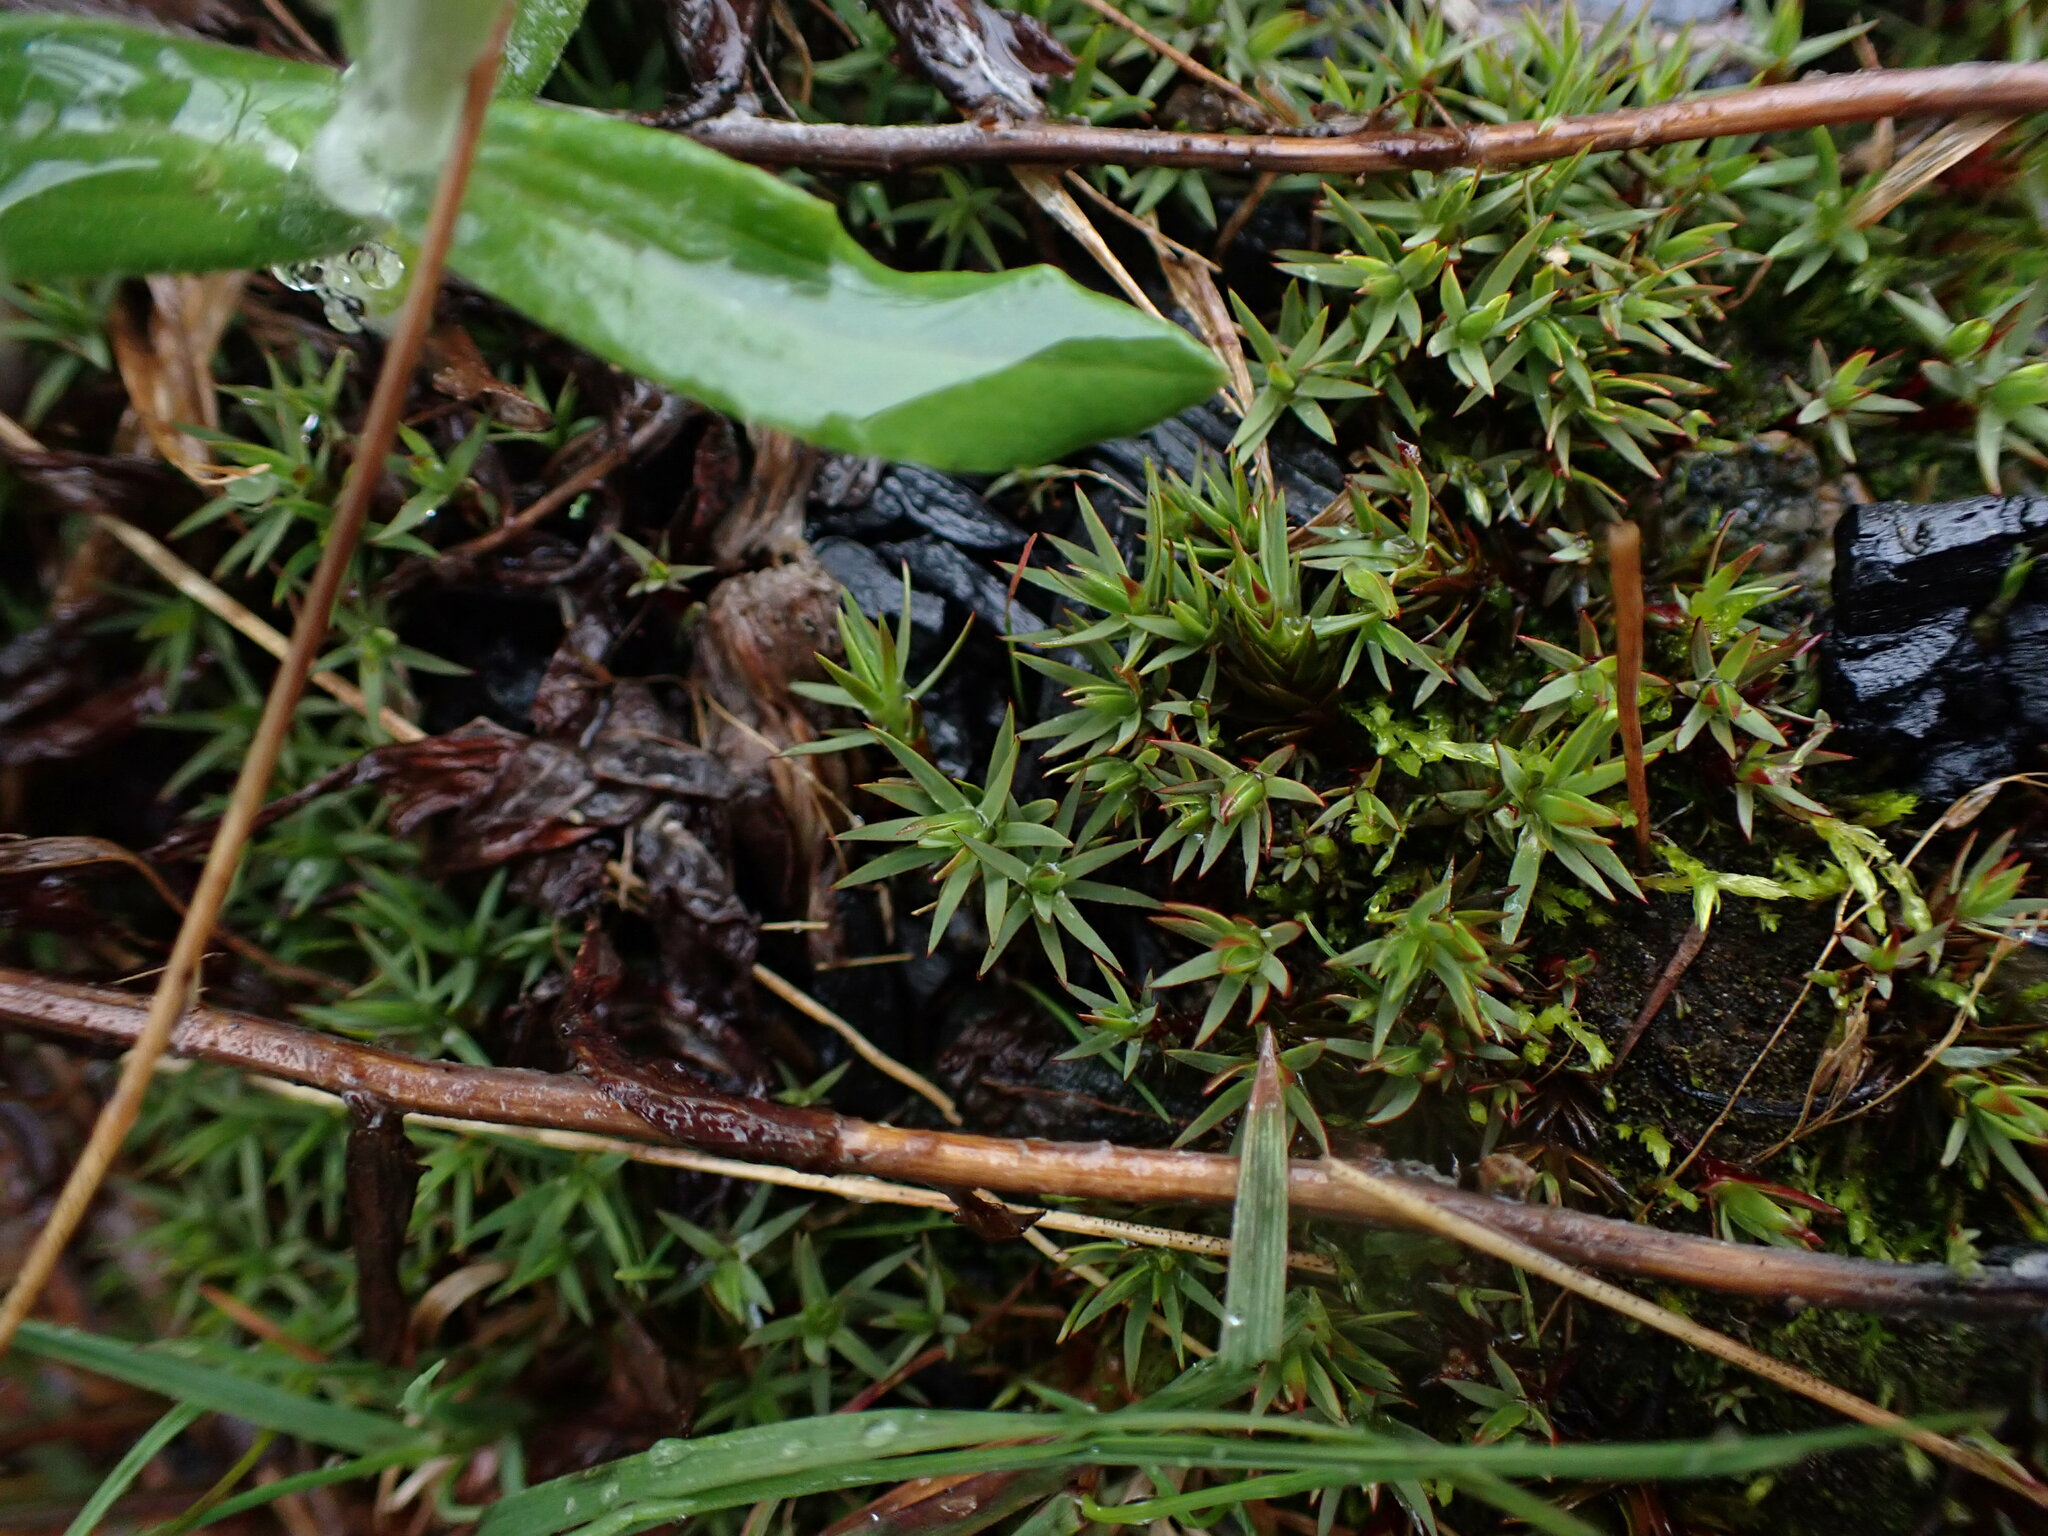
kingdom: Plantae
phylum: Bryophyta
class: Polytrichopsida
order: Polytrichales
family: Polytrichaceae
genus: Pogonatum
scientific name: Pogonatum urnigerum
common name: Urn hair moss
